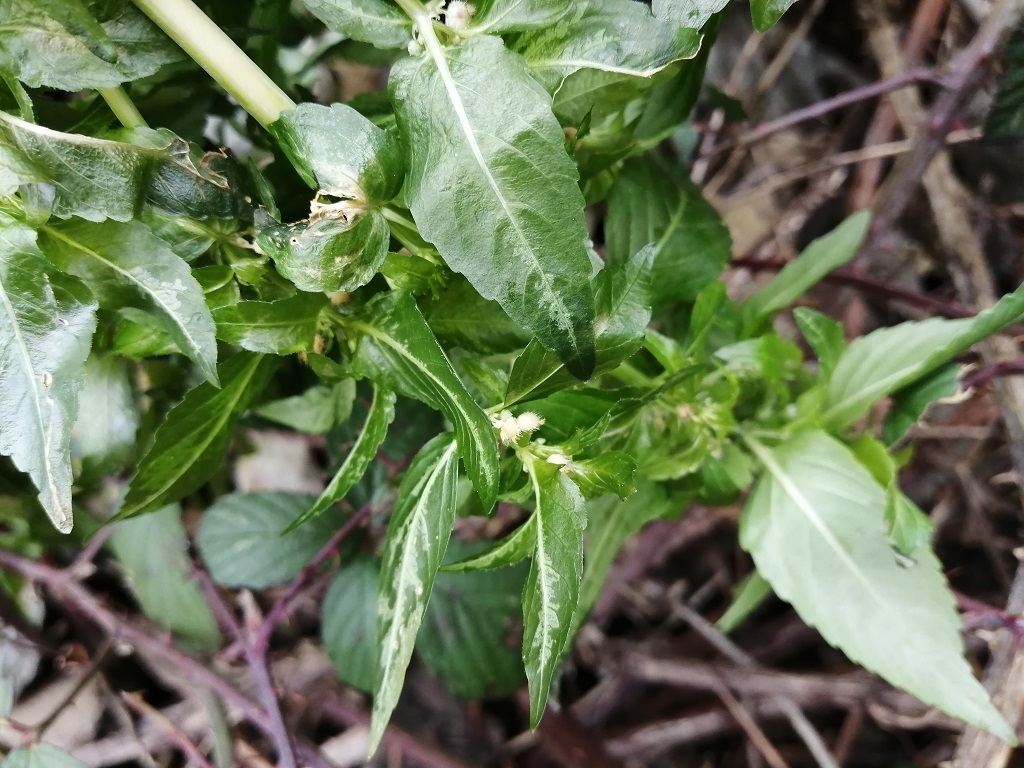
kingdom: Plantae
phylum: Tracheophyta
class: Magnoliopsida
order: Malpighiales
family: Euphorbiaceae
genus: Mercurialis
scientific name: Mercurialis annua
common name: Annual mercury
